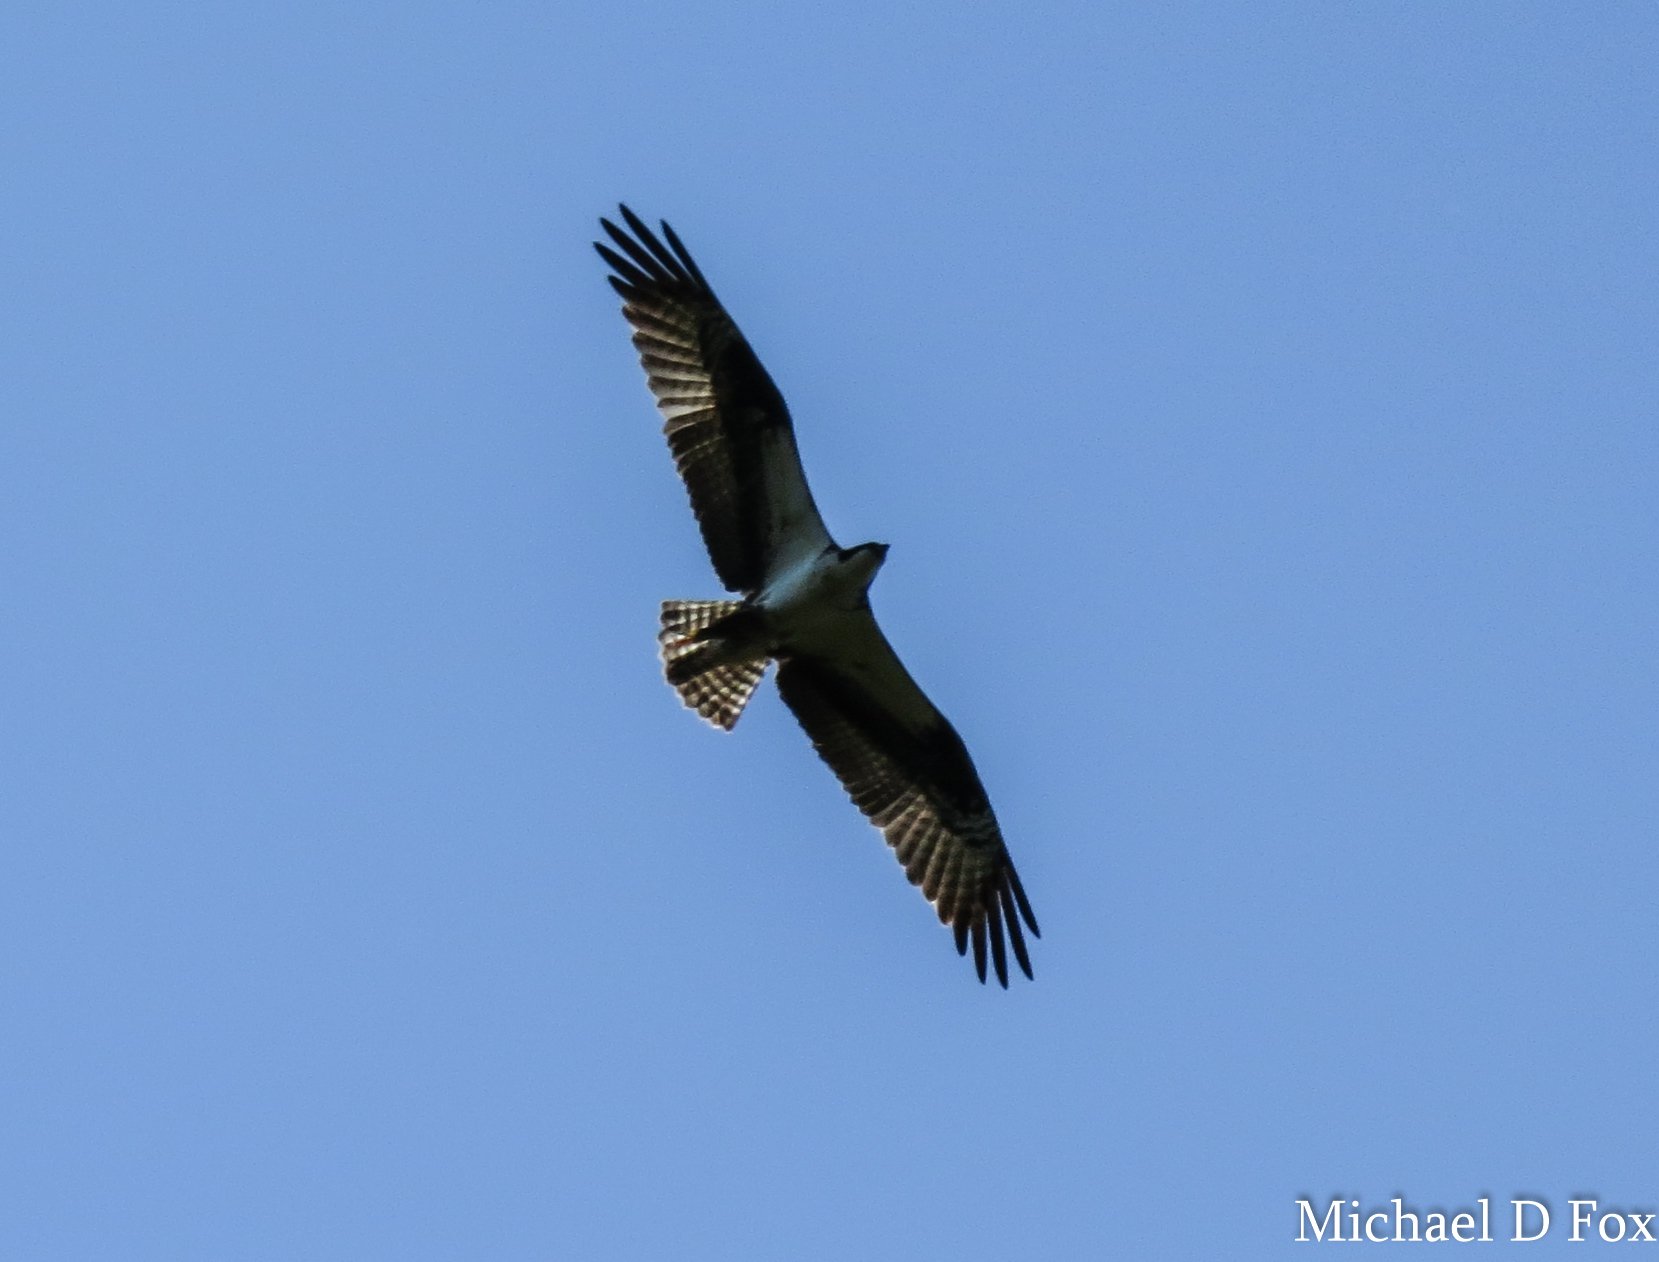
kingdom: Animalia
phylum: Chordata
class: Aves
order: Accipitriformes
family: Pandionidae
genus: Pandion
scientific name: Pandion haliaetus
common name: Osprey
